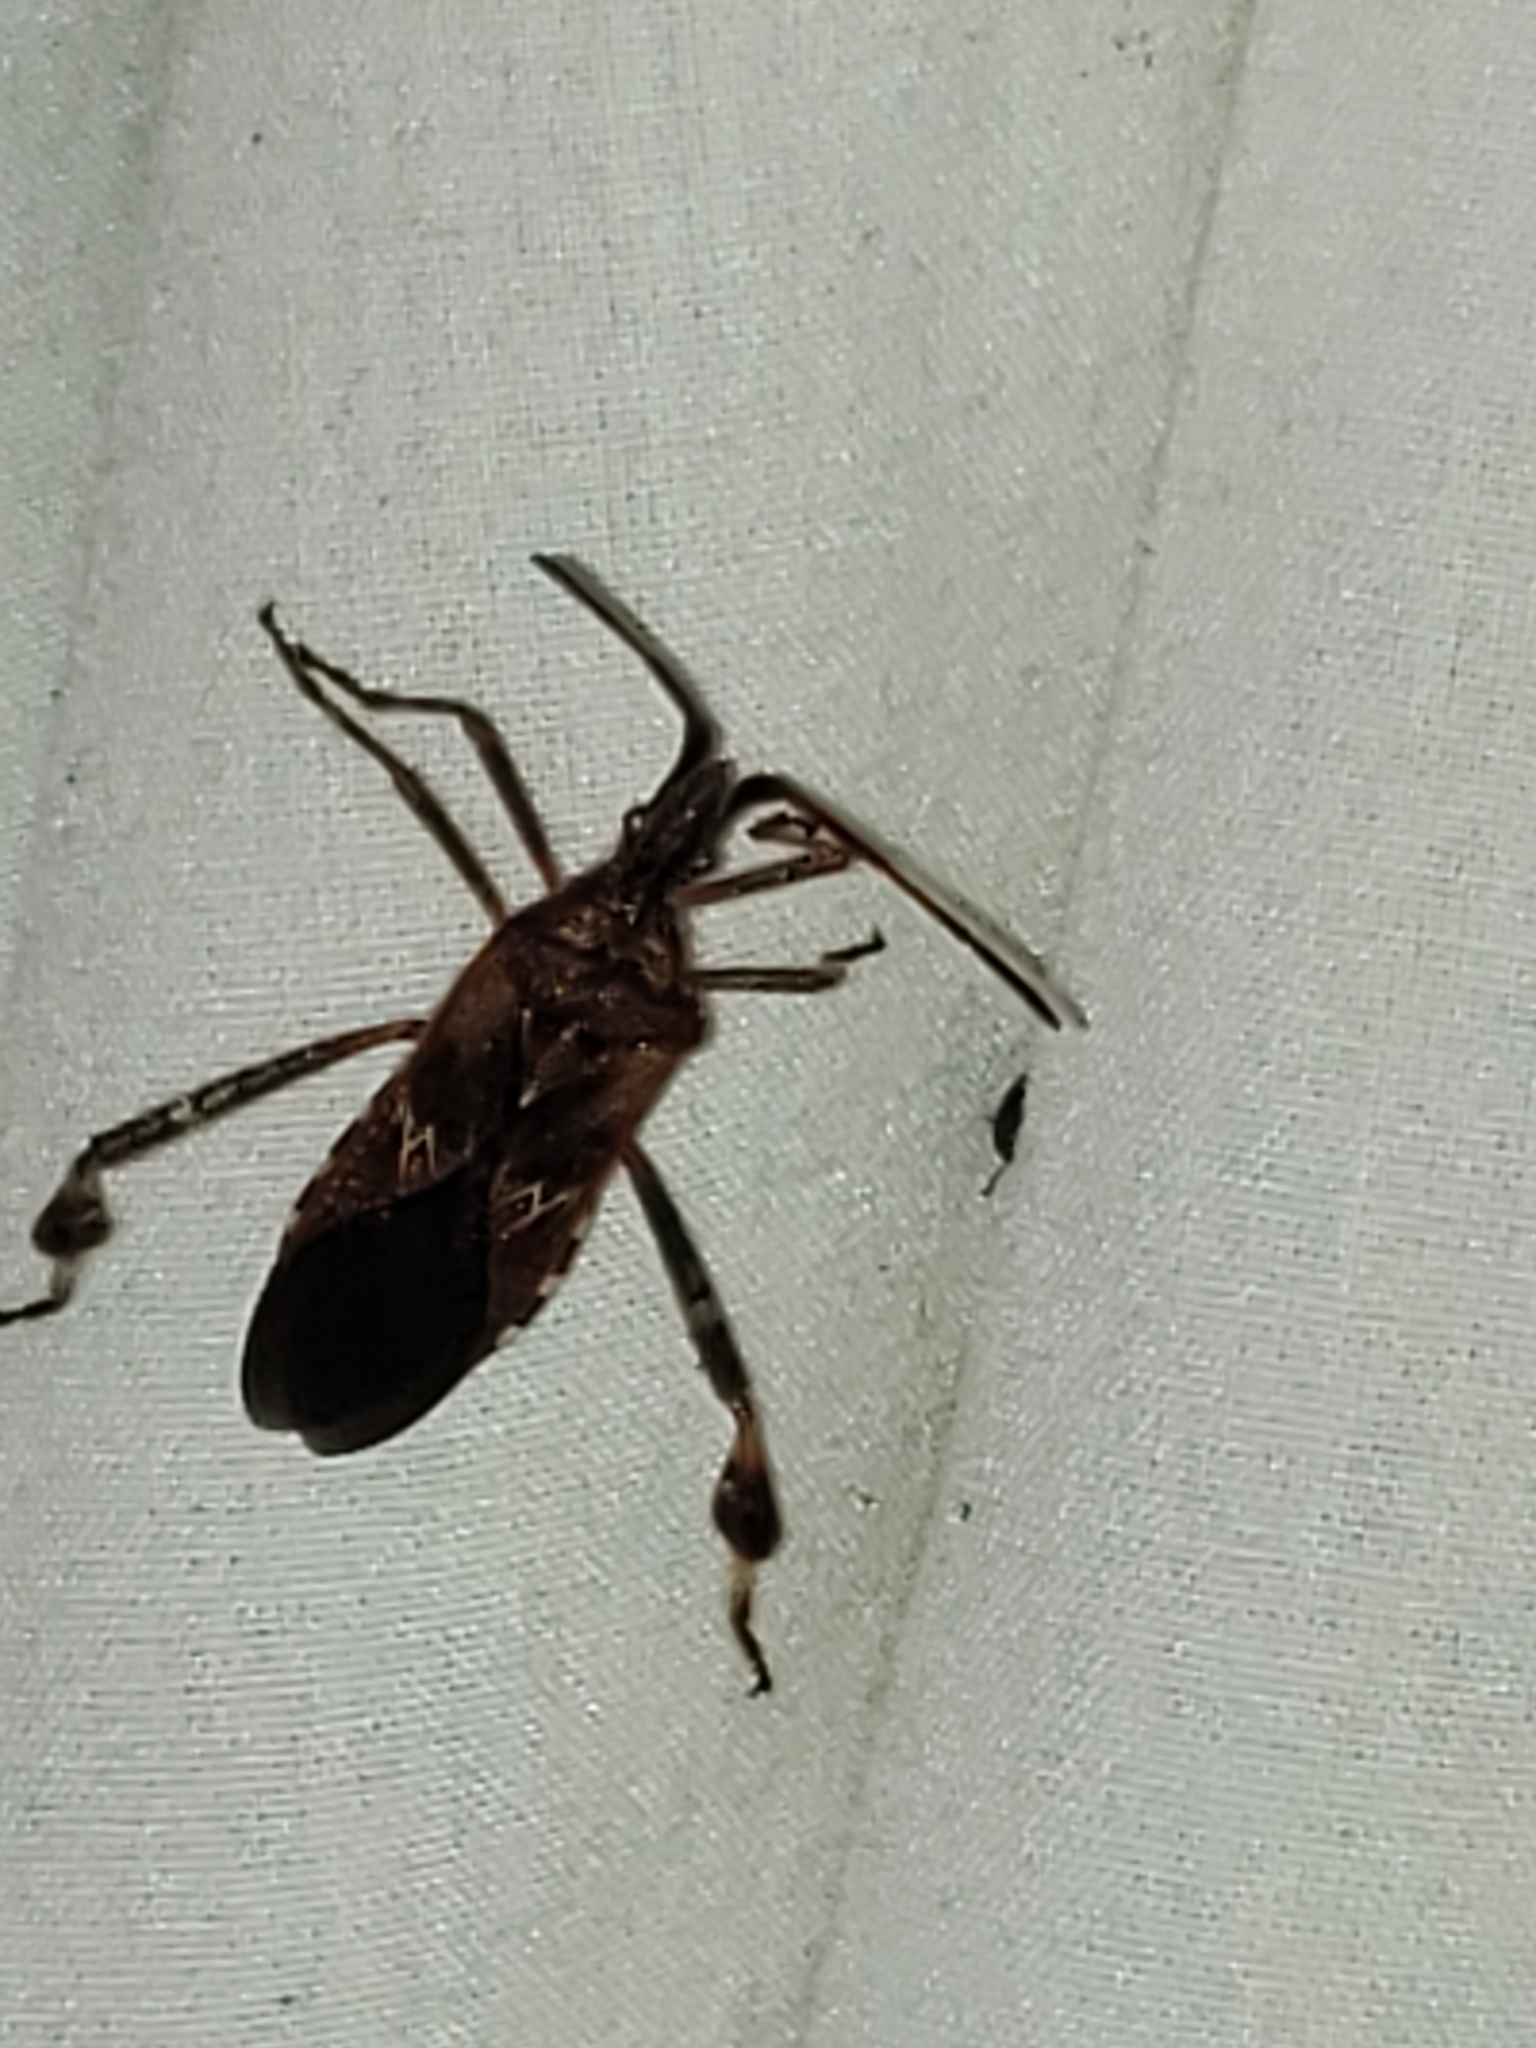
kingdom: Animalia
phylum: Arthropoda
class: Insecta
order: Hemiptera
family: Coreidae
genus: Leptoglossus
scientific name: Leptoglossus occidentalis
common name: Western conifer-seed bug
